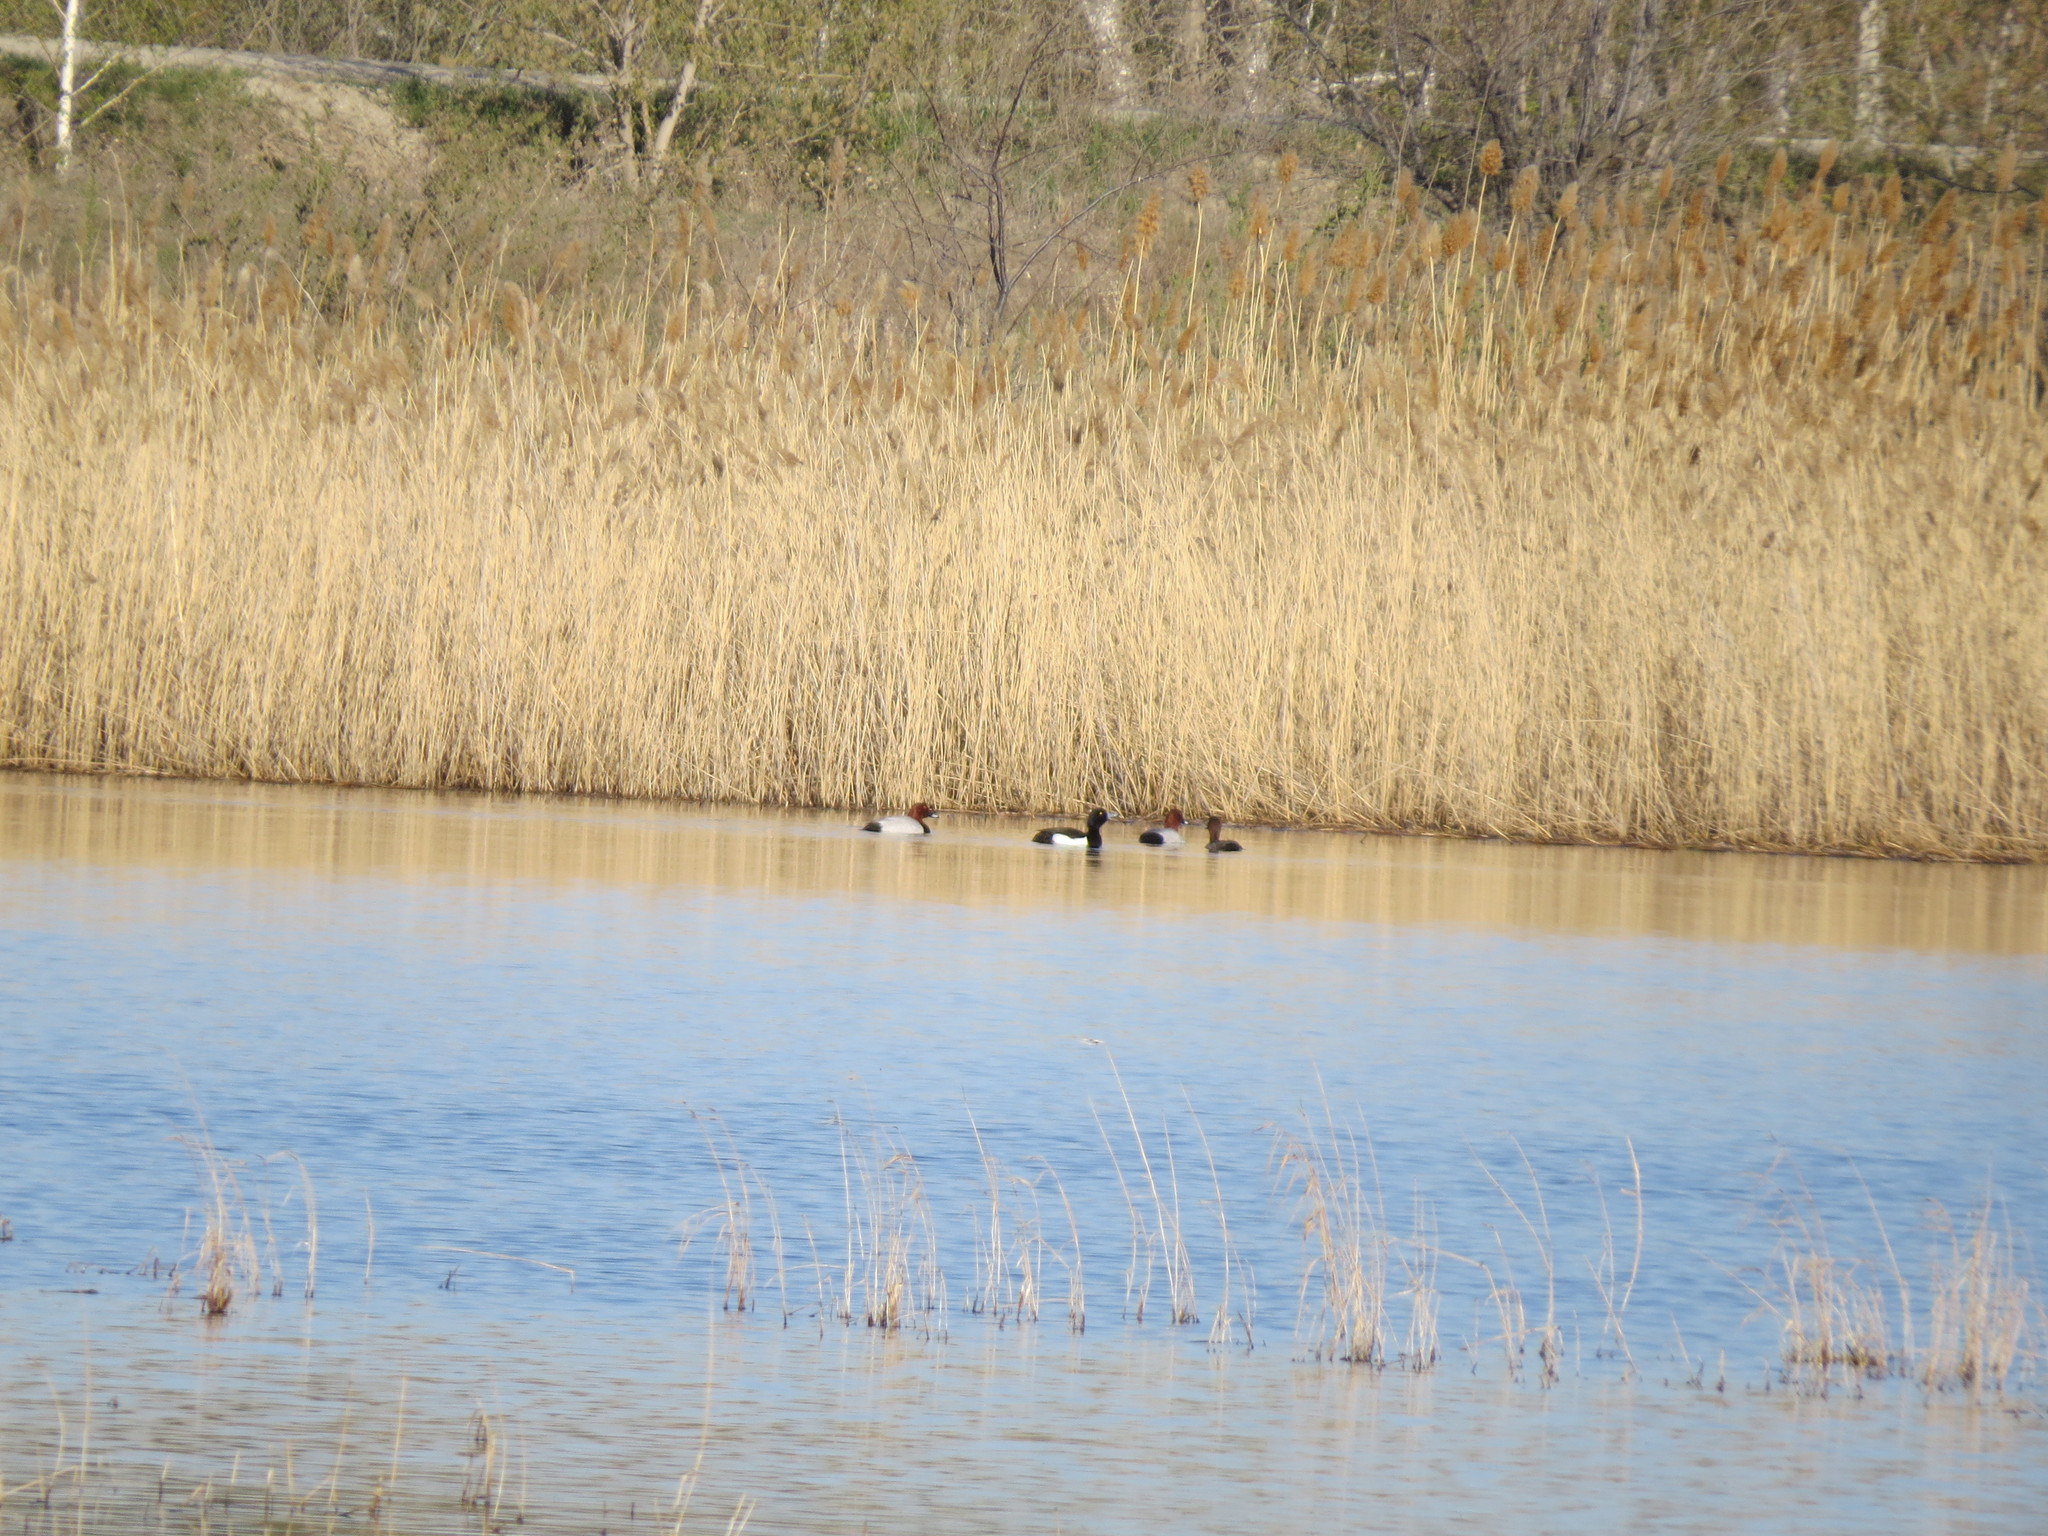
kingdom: Animalia
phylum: Chordata
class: Aves
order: Anseriformes
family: Anatidae
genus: Aythya
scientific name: Aythya ferina
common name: Common pochard
